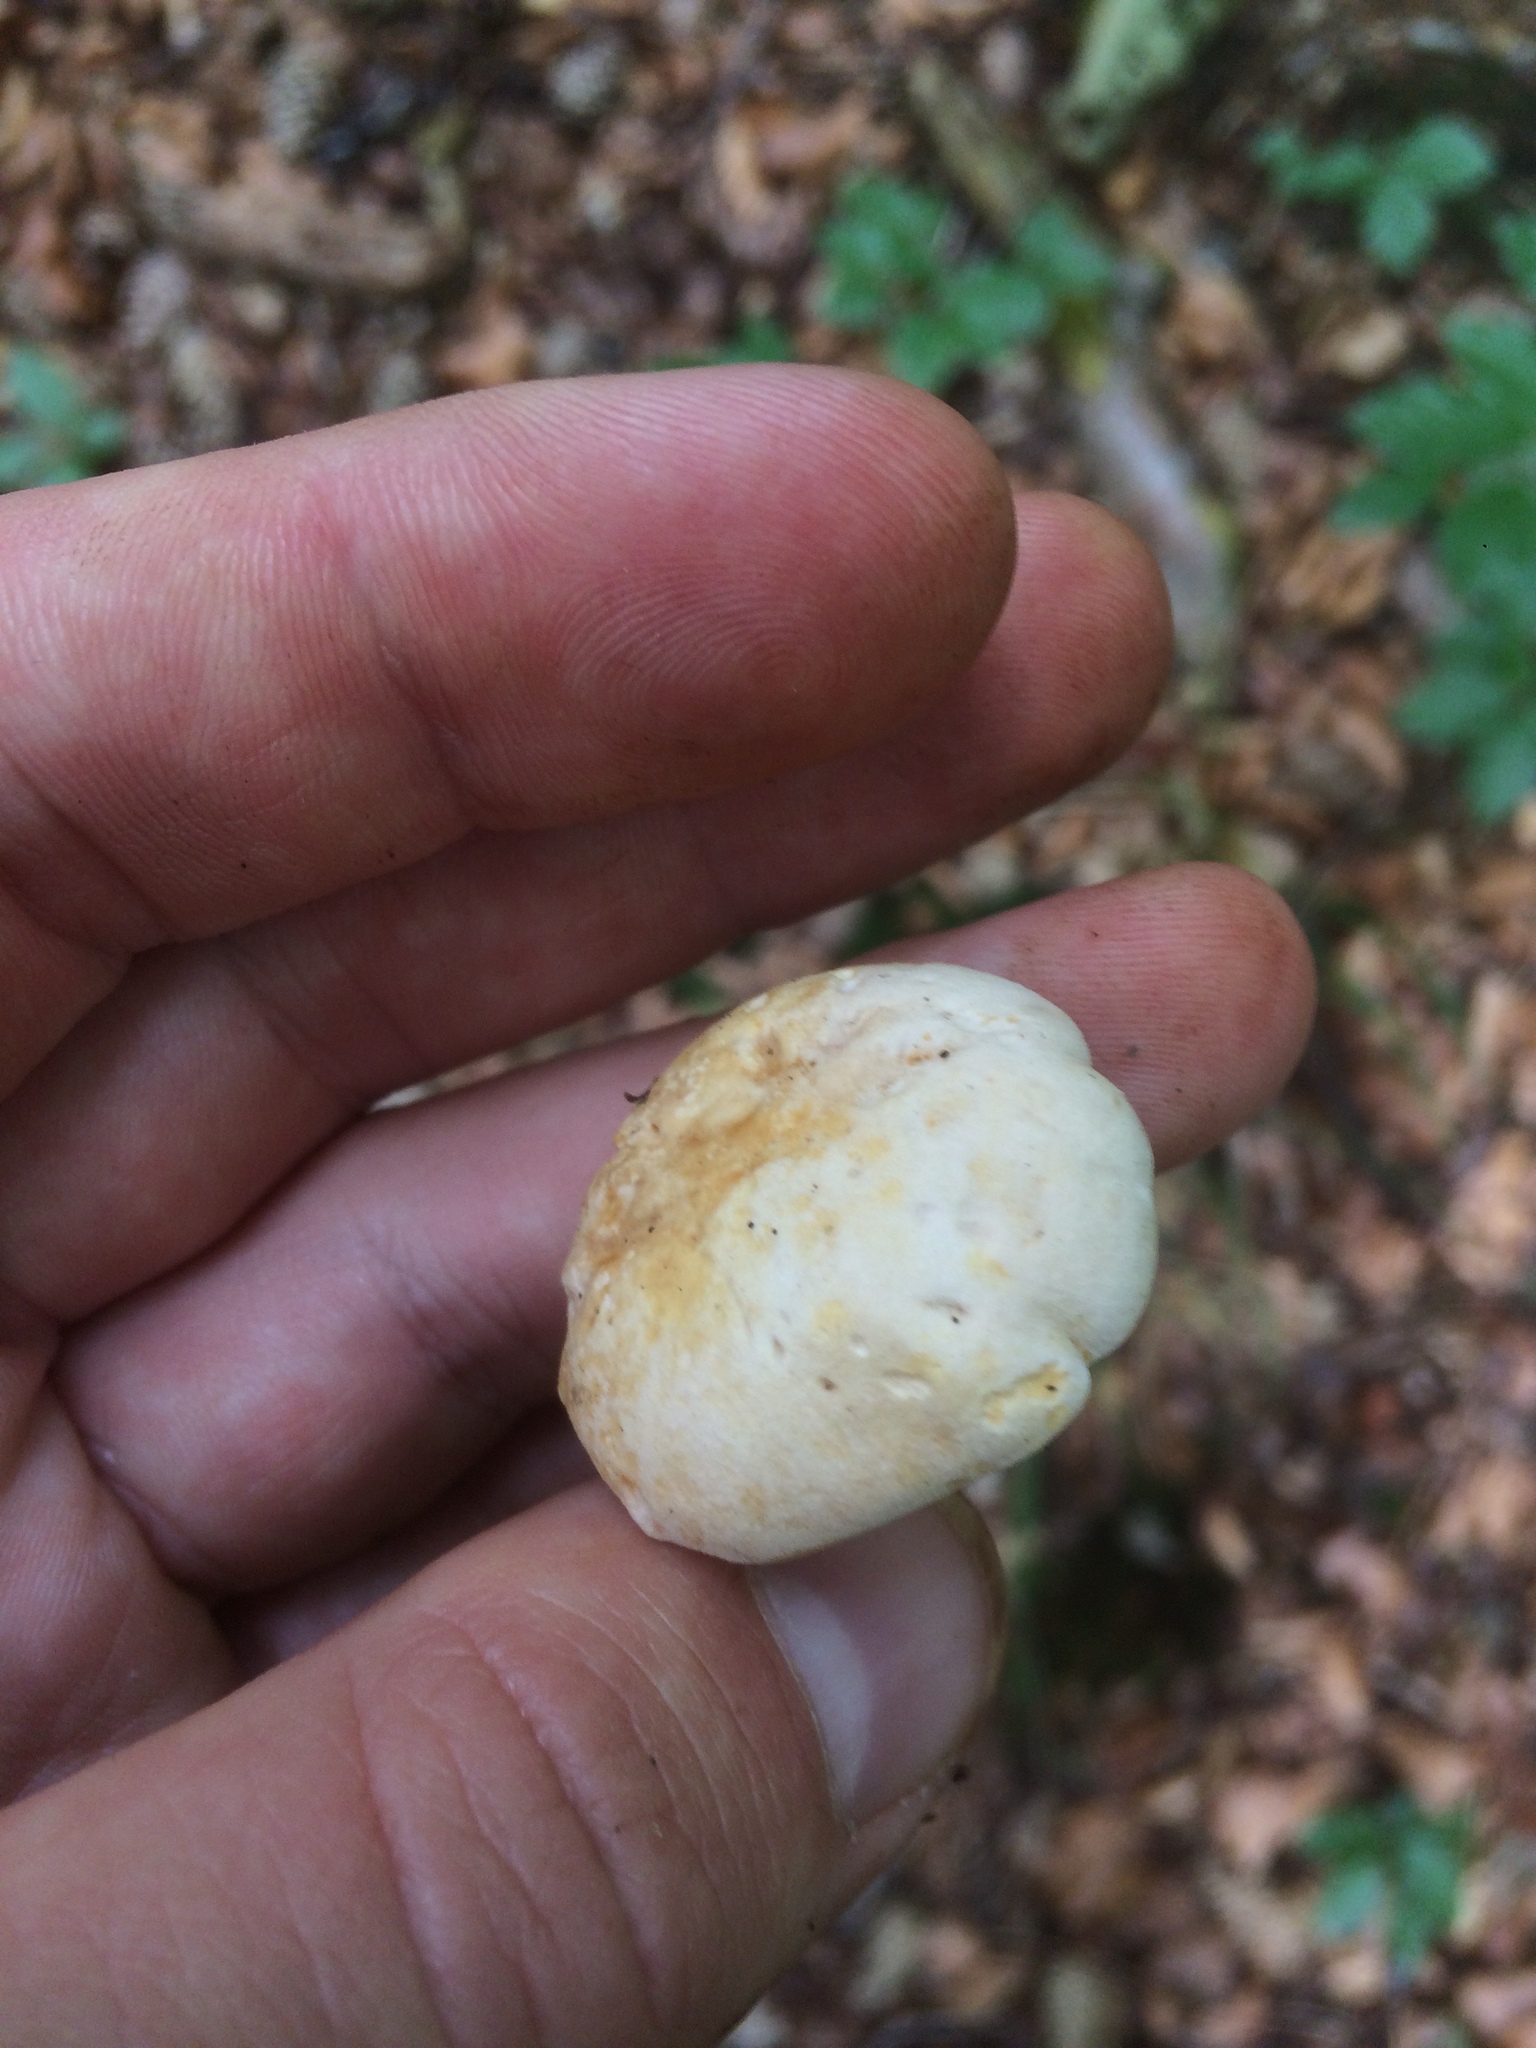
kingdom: Fungi
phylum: Basidiomycota
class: Agaricomycetes
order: Cantharellales
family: Hydnaceae
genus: Cantharellus
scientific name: Cantharellus pallens
